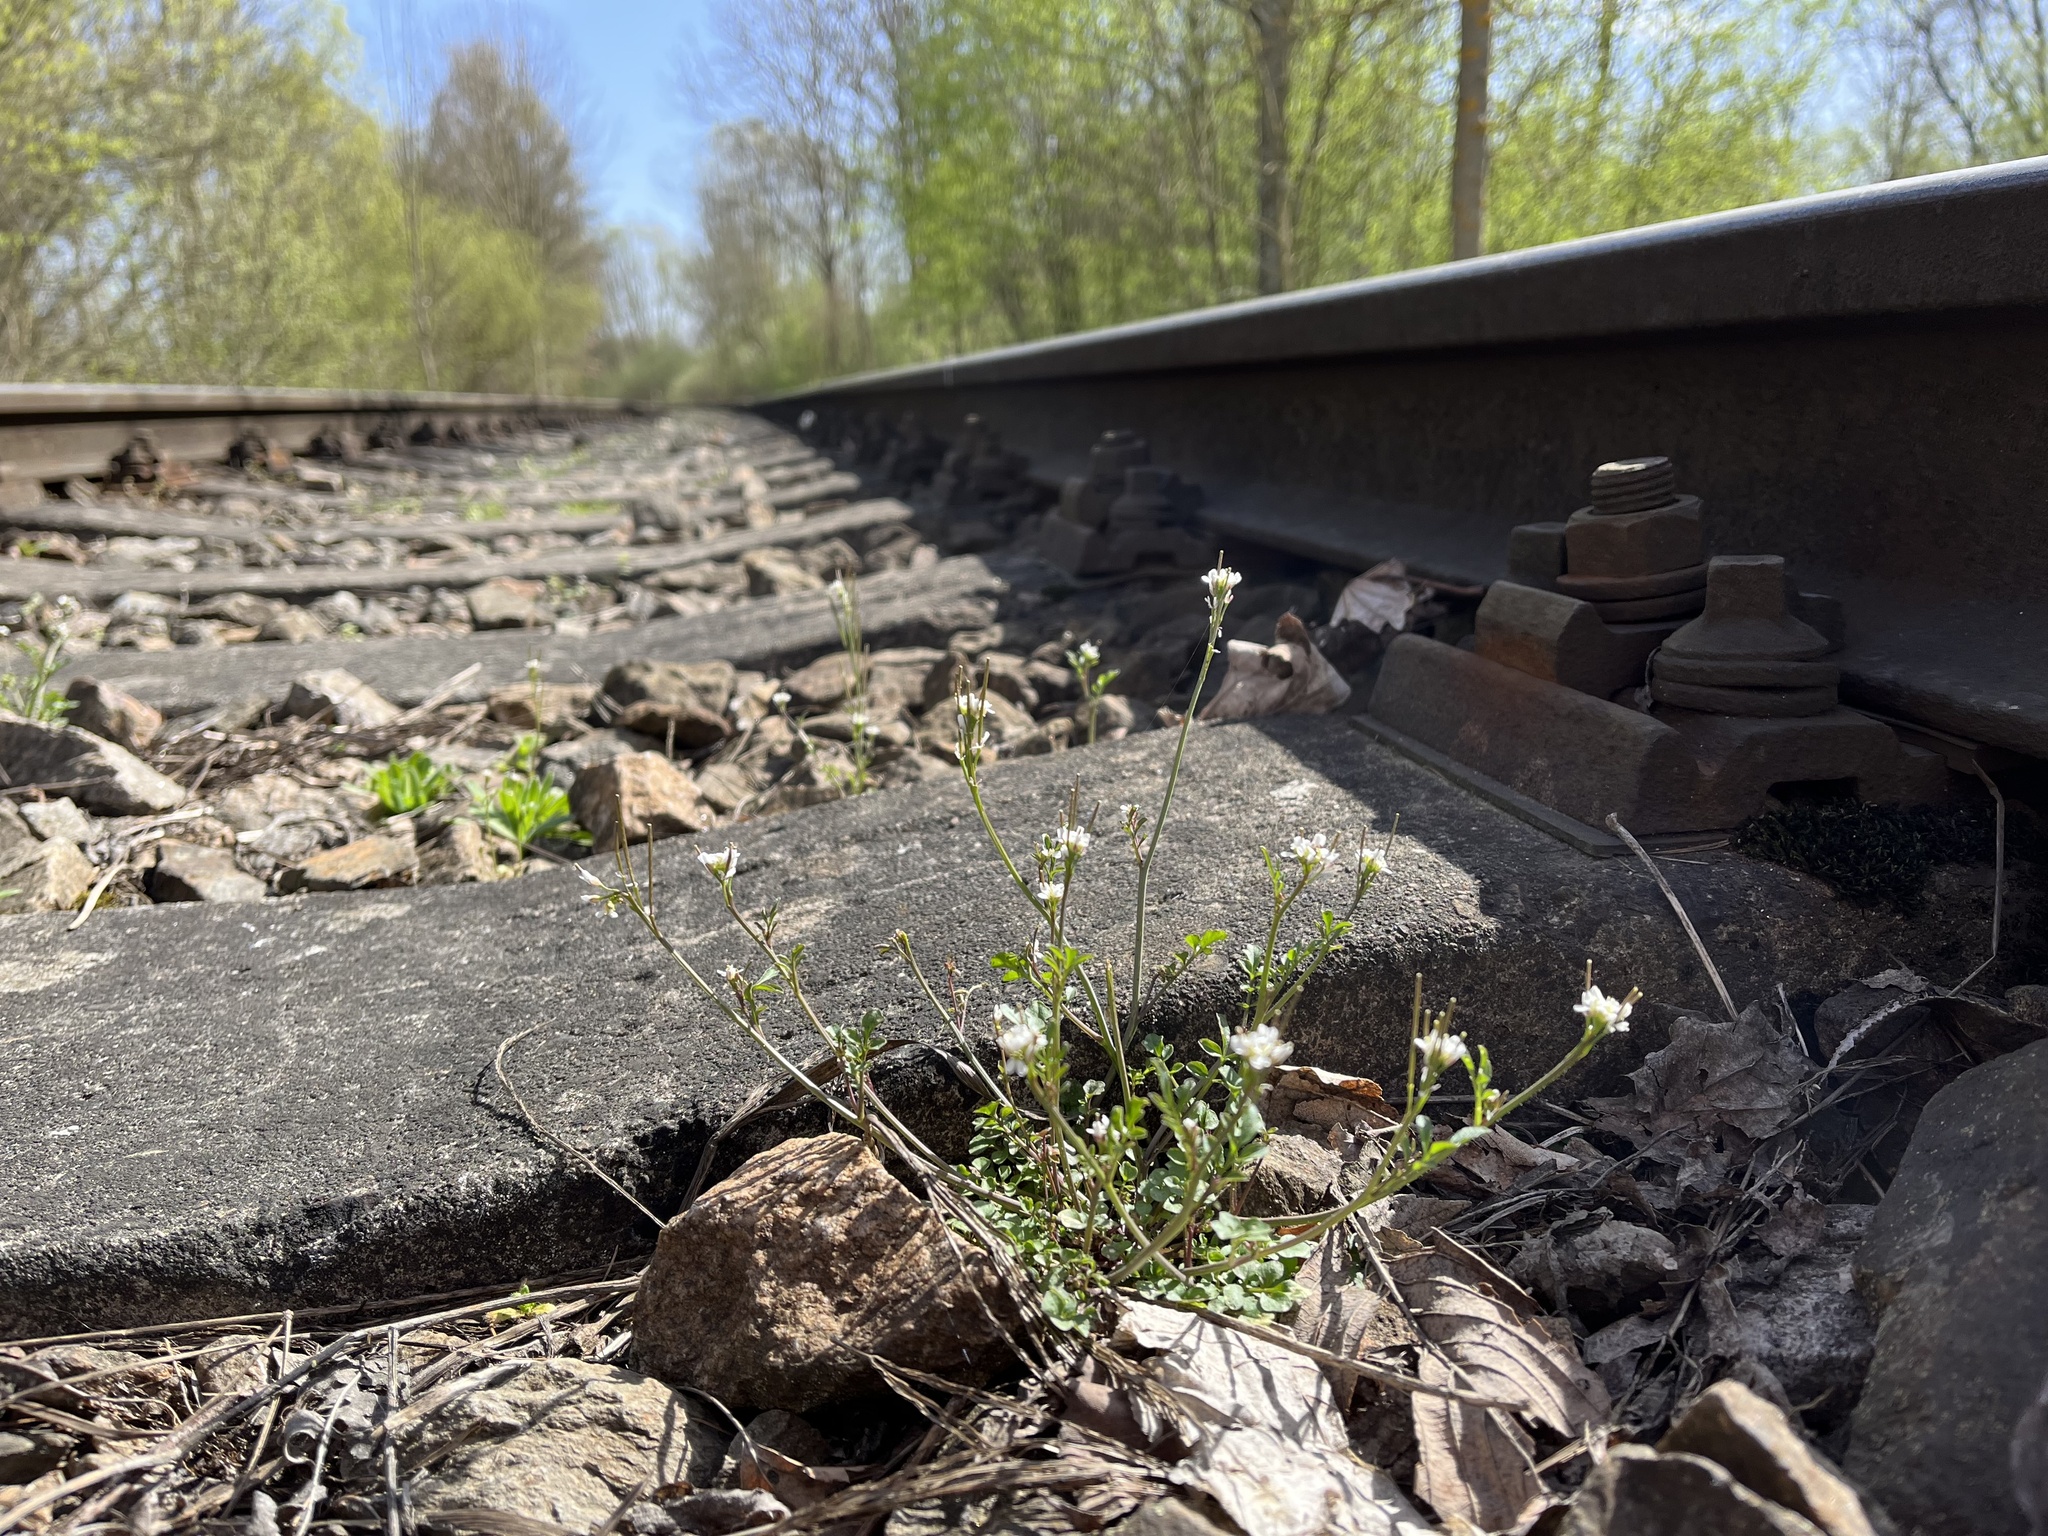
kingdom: Plantae
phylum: Tracheophyta
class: Magnoliopsida
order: Brassicales
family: Brassicaceae
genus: Cardamine
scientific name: Cardamine hirsuta
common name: Hairy bittercress
